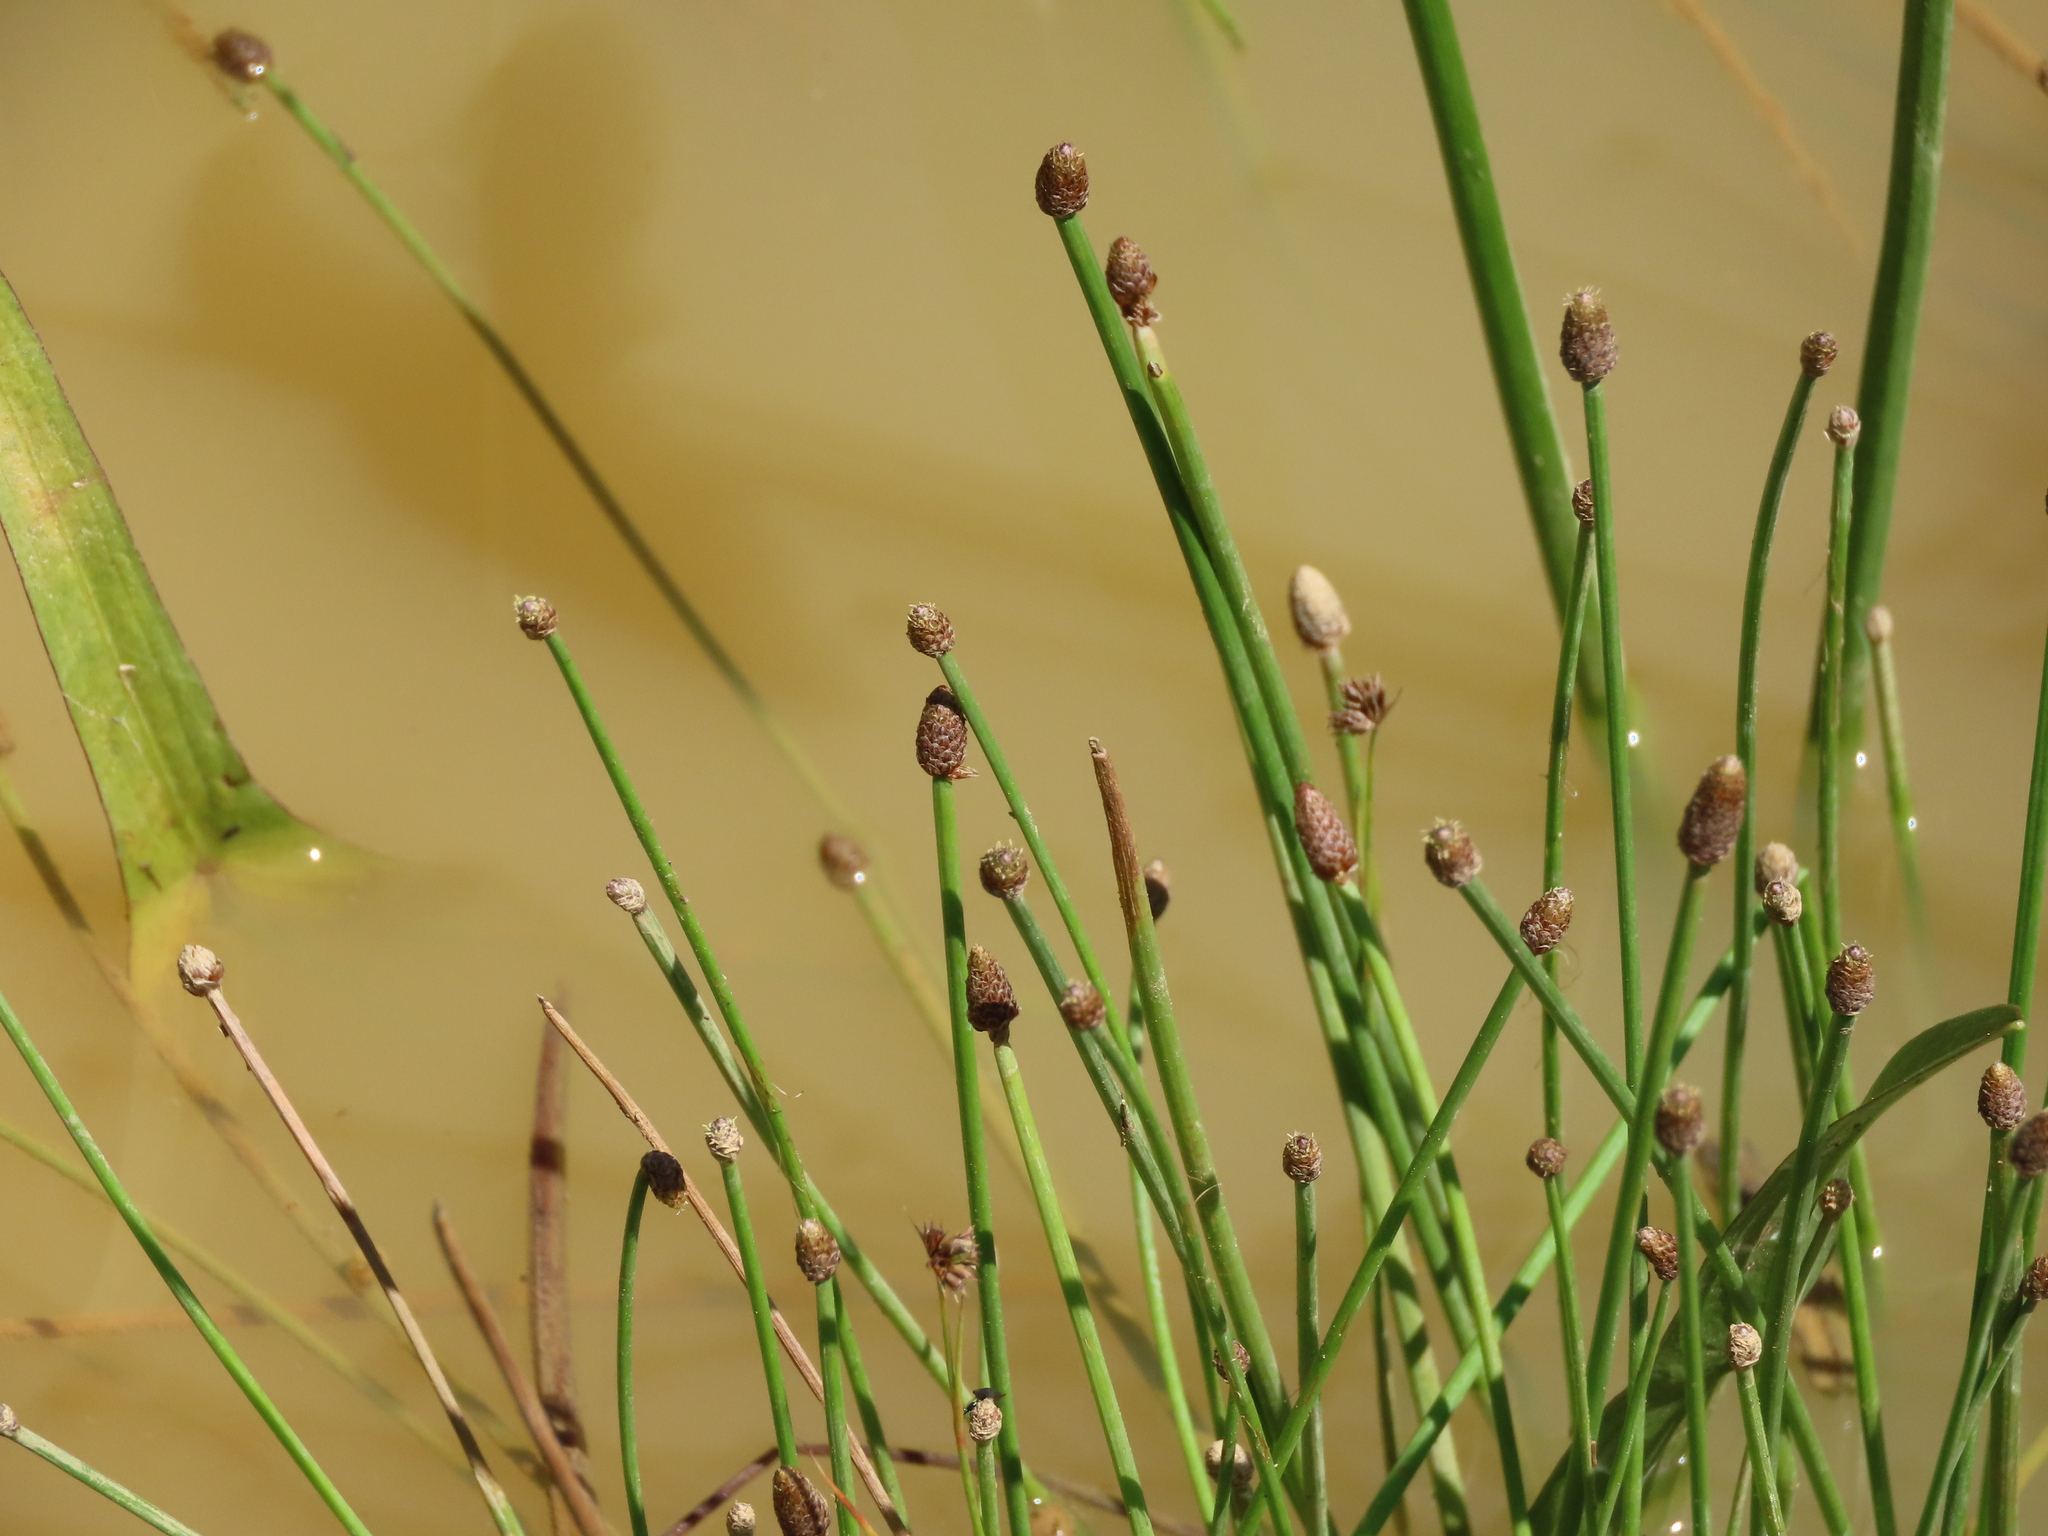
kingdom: Plantae
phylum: Tracheophyta
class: Liliopsida
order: Poales
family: Cyperaceae
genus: Eleocharis
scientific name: Eleocharis obtusa
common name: Blunt spikerush
